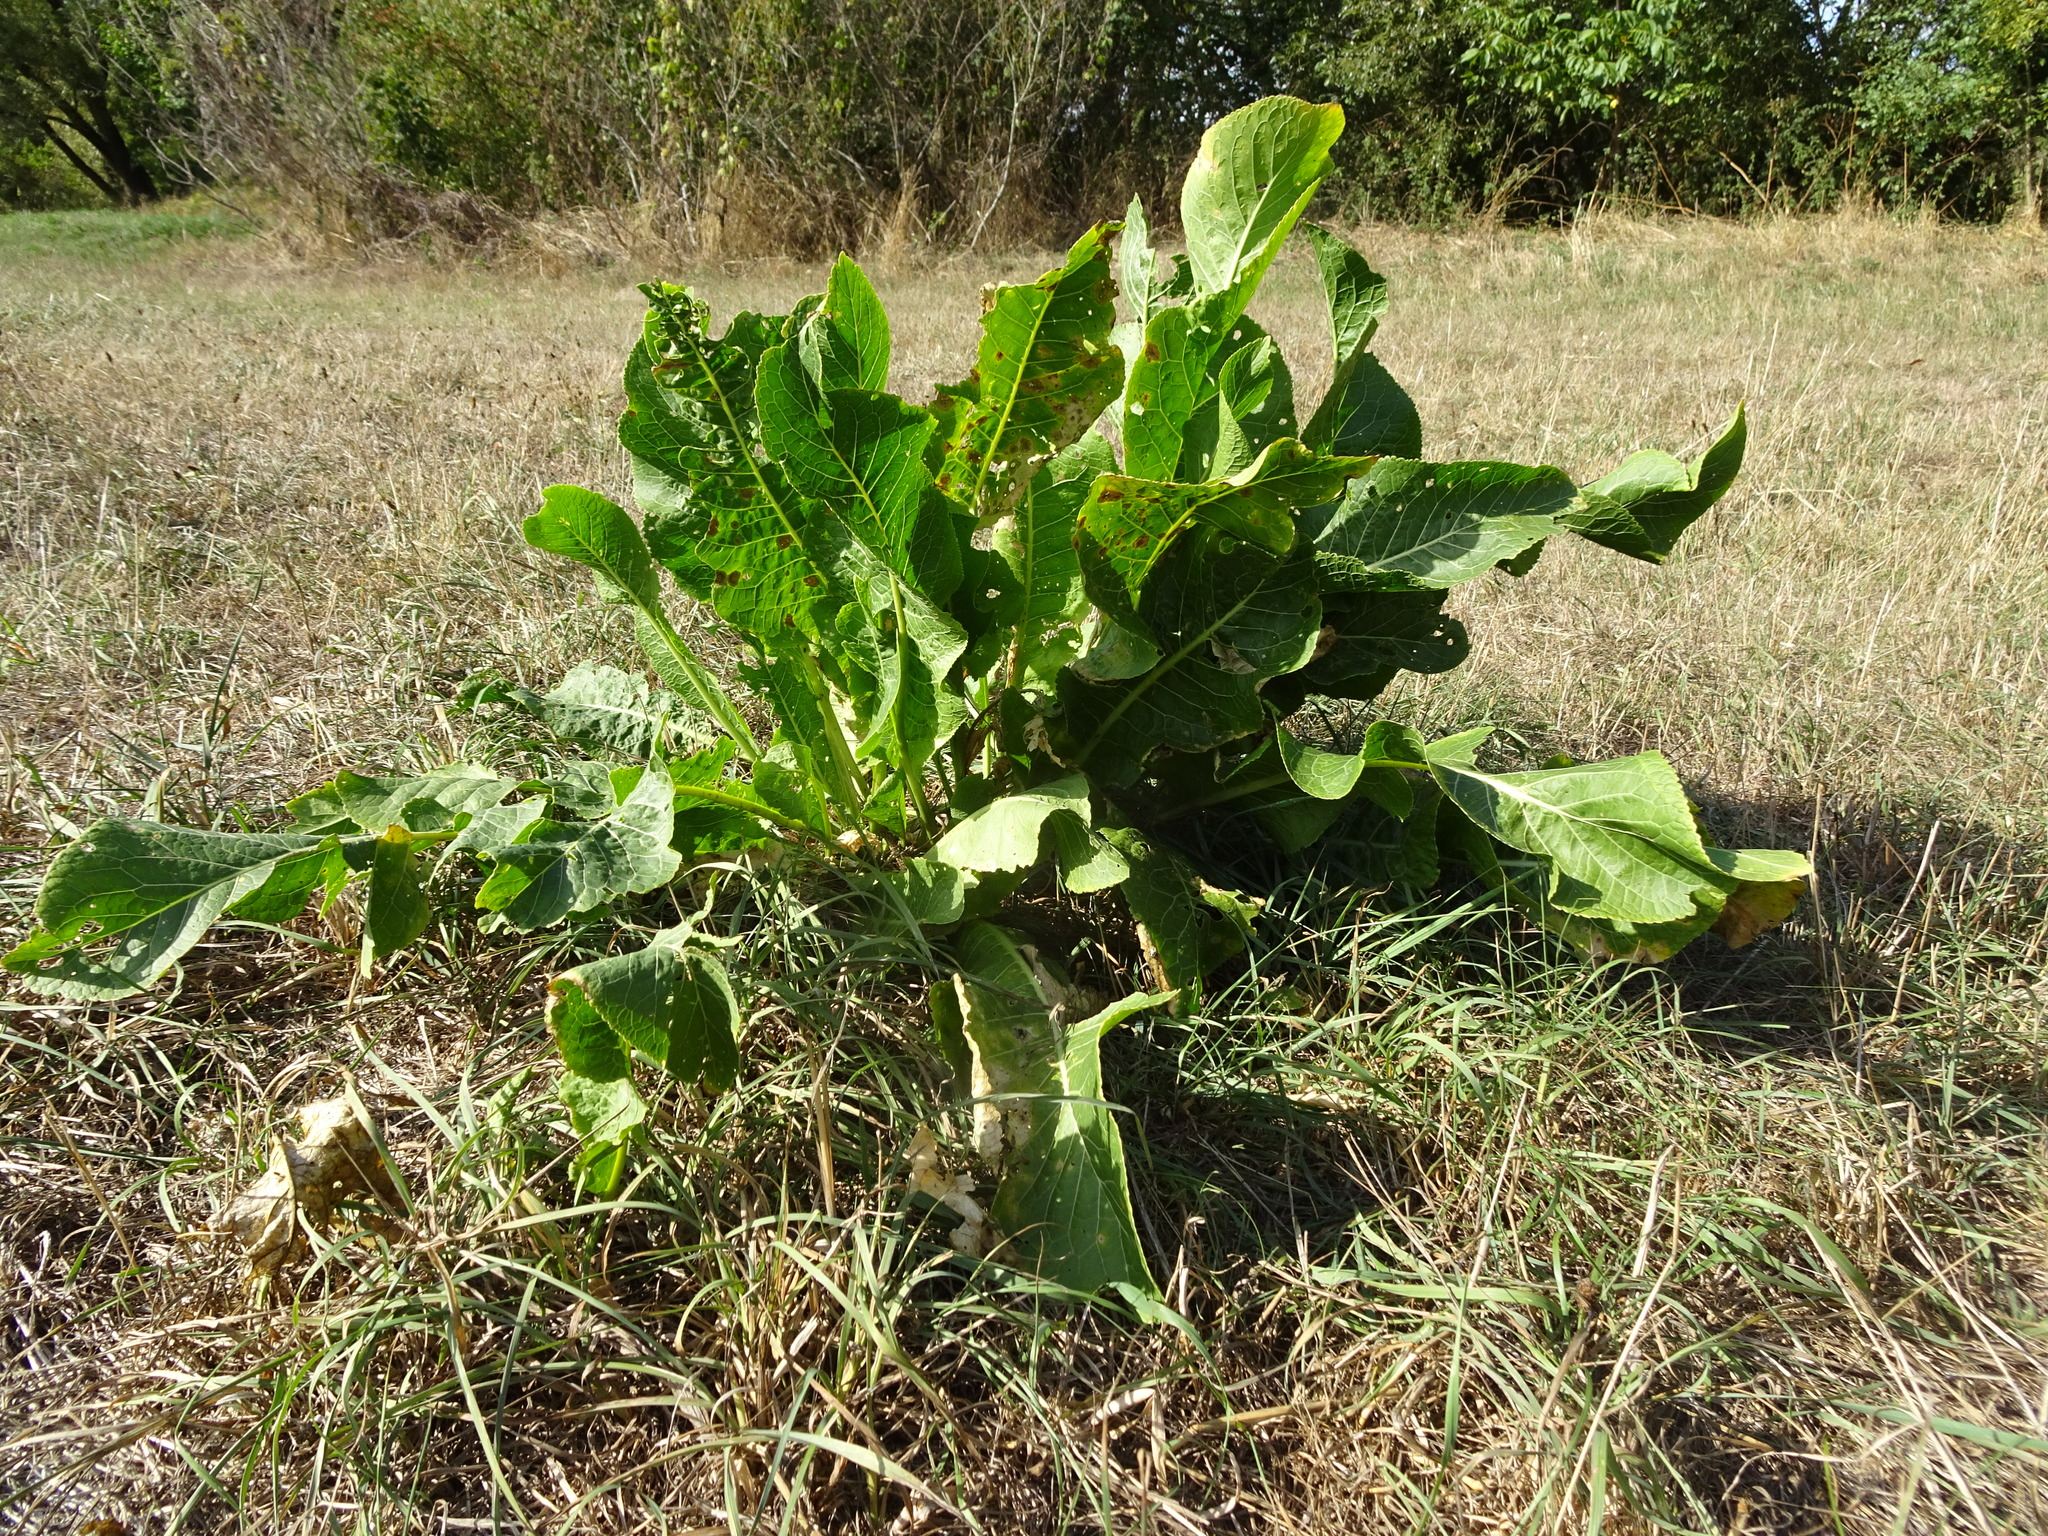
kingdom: Plantae
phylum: Tracheophyta
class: Magnoliopsida
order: Brassicales
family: Brassicaceae
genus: Armoracia
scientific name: Armoracia rusticana
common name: Horseradish
